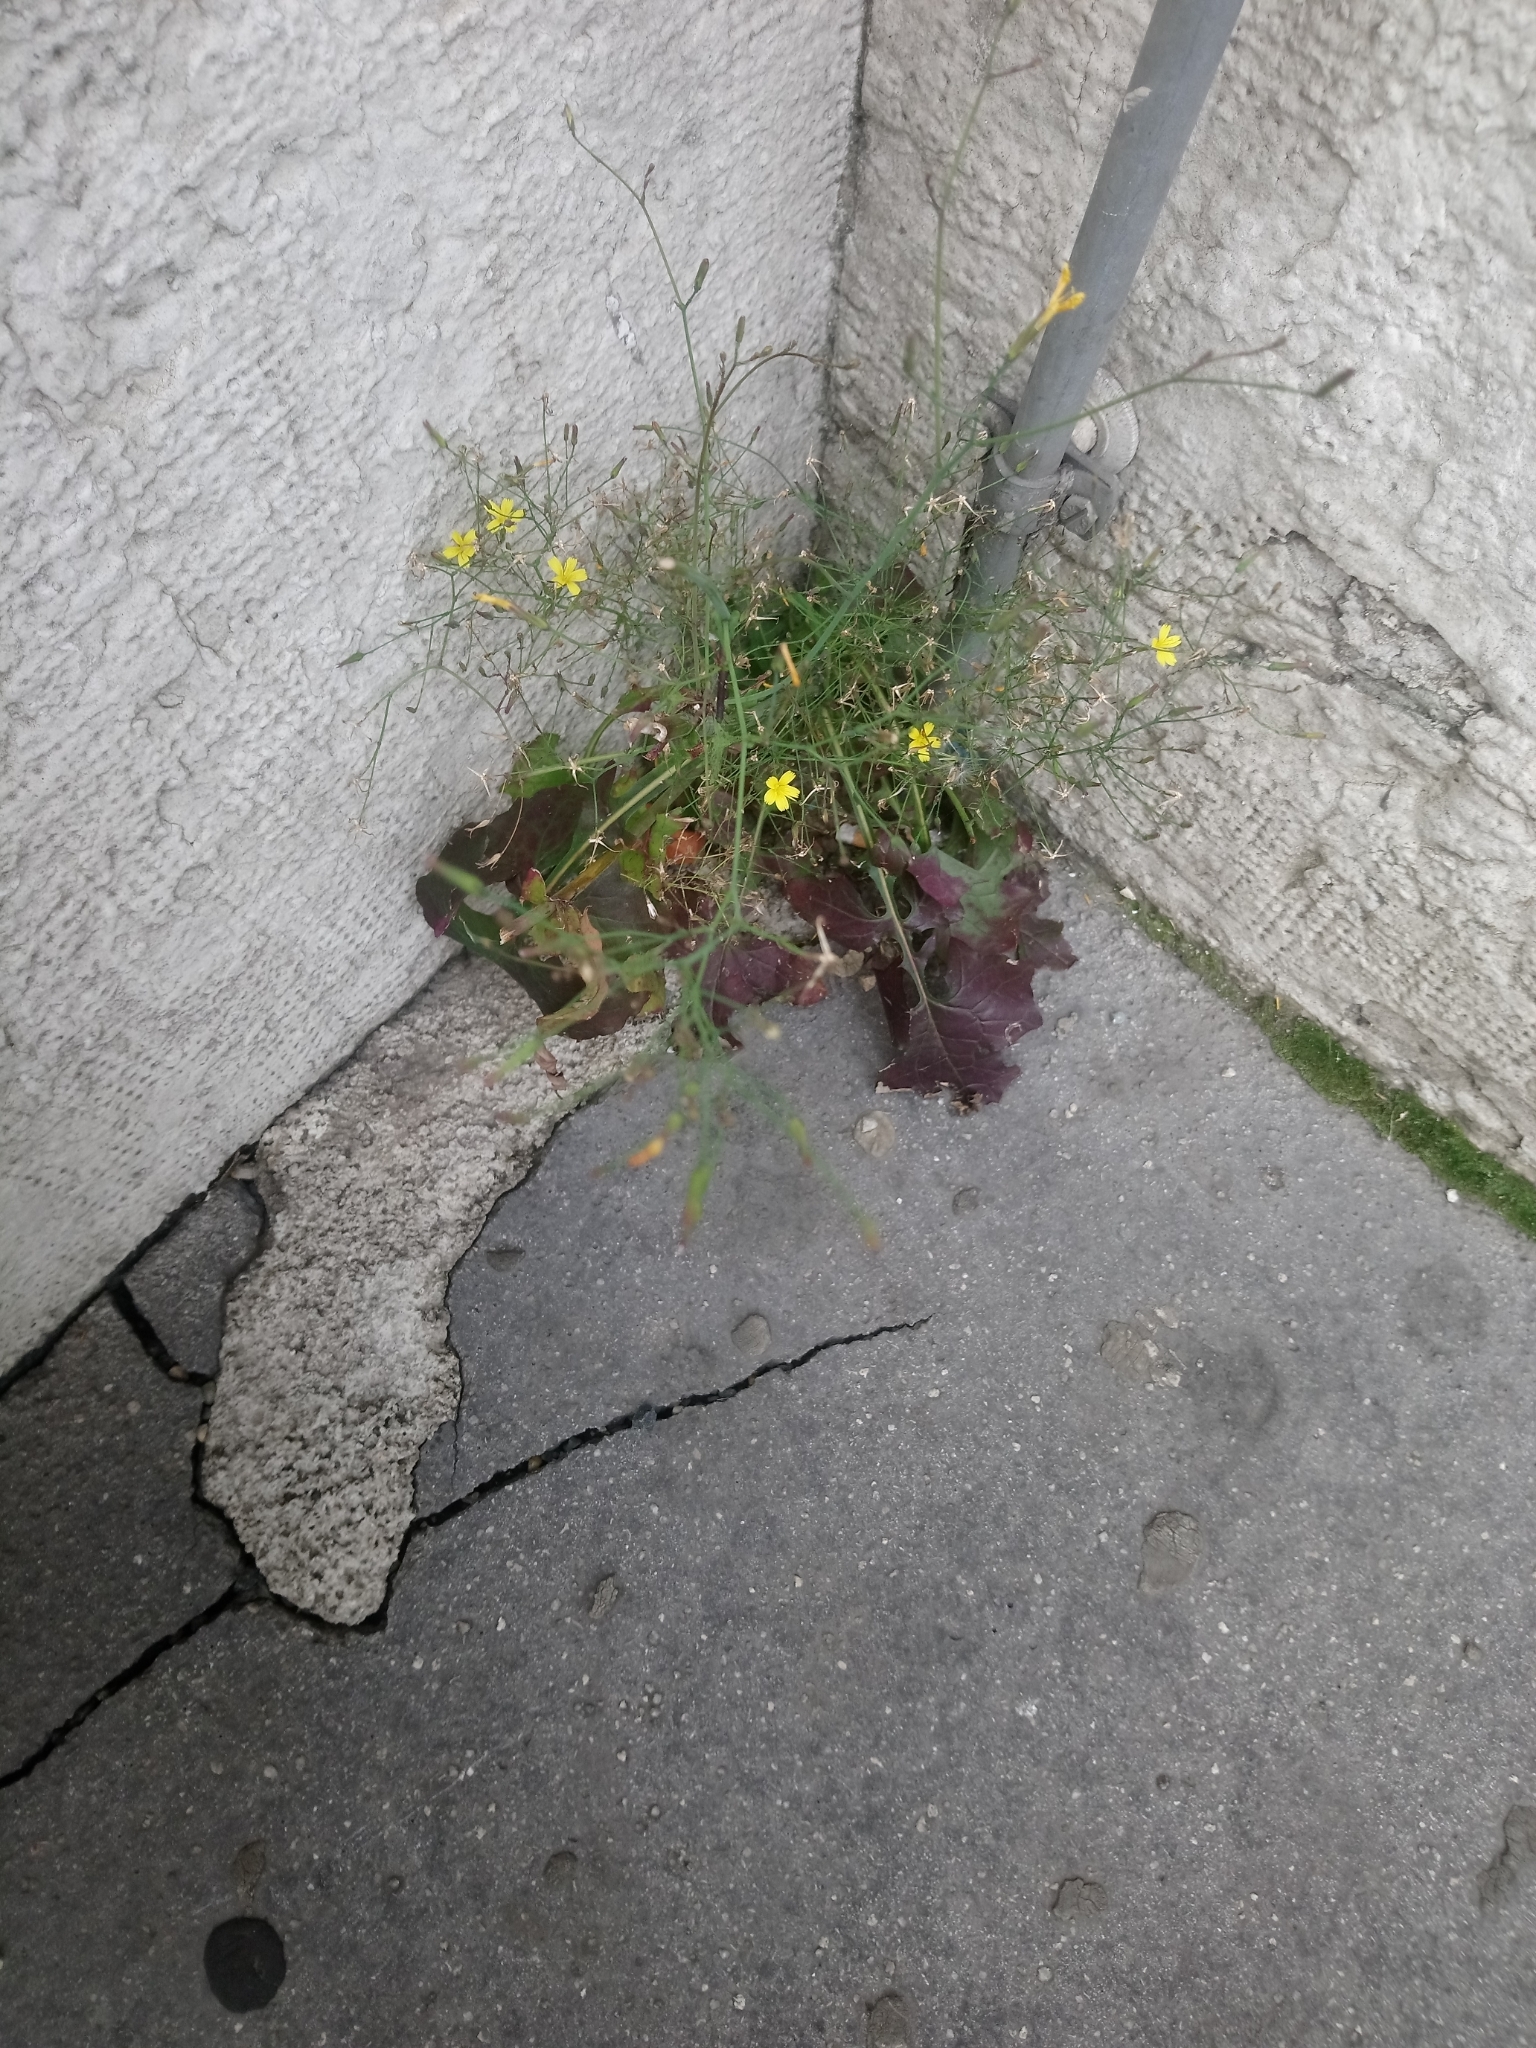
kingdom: Plantae
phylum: Tracheophyta
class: Magnoliopsida
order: Asterales
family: Asteraceae
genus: Mycelis
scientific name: Mycelis muralis
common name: Wall lettuce
